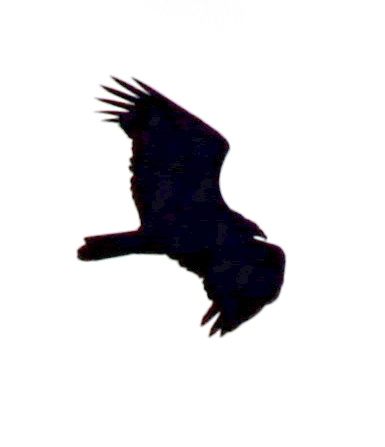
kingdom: Animalia
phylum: Chordata
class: Aves
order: Accipitriformes
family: Cathartidae
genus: Cathartes
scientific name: Cathartes aura
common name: Turkey vulture
